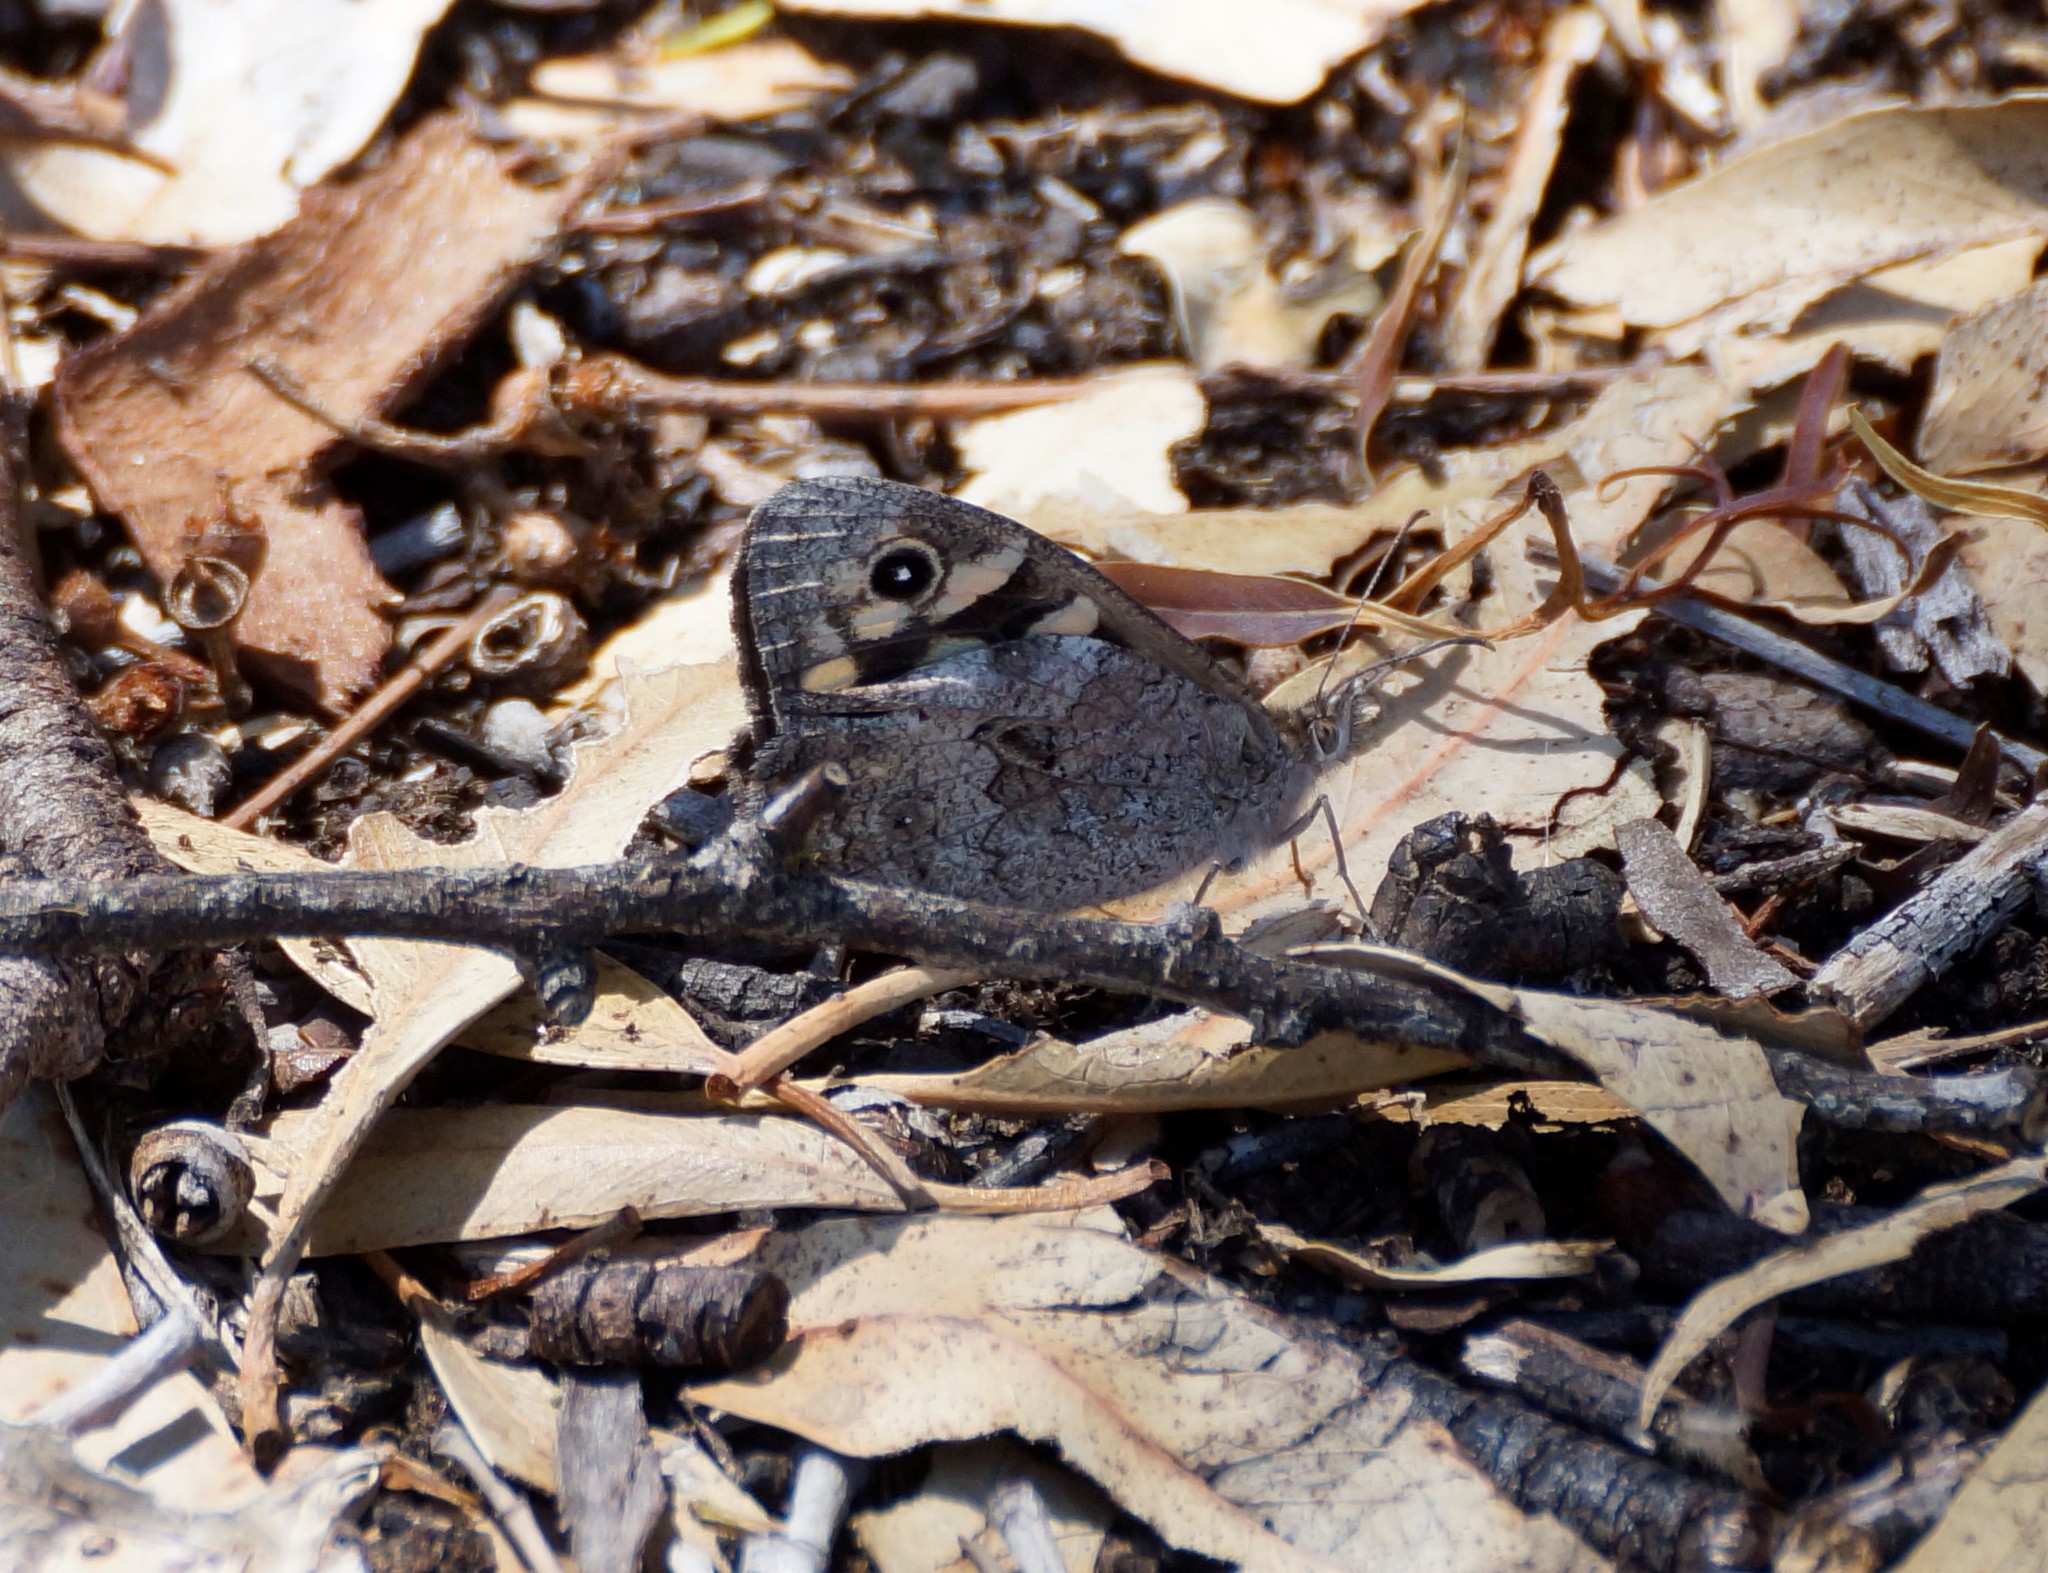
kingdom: Animalia
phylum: Arthropoda
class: Insecta
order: Lepidoptera
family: Nymphalidae
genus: Geitoneura
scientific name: Geitoneura klugii
